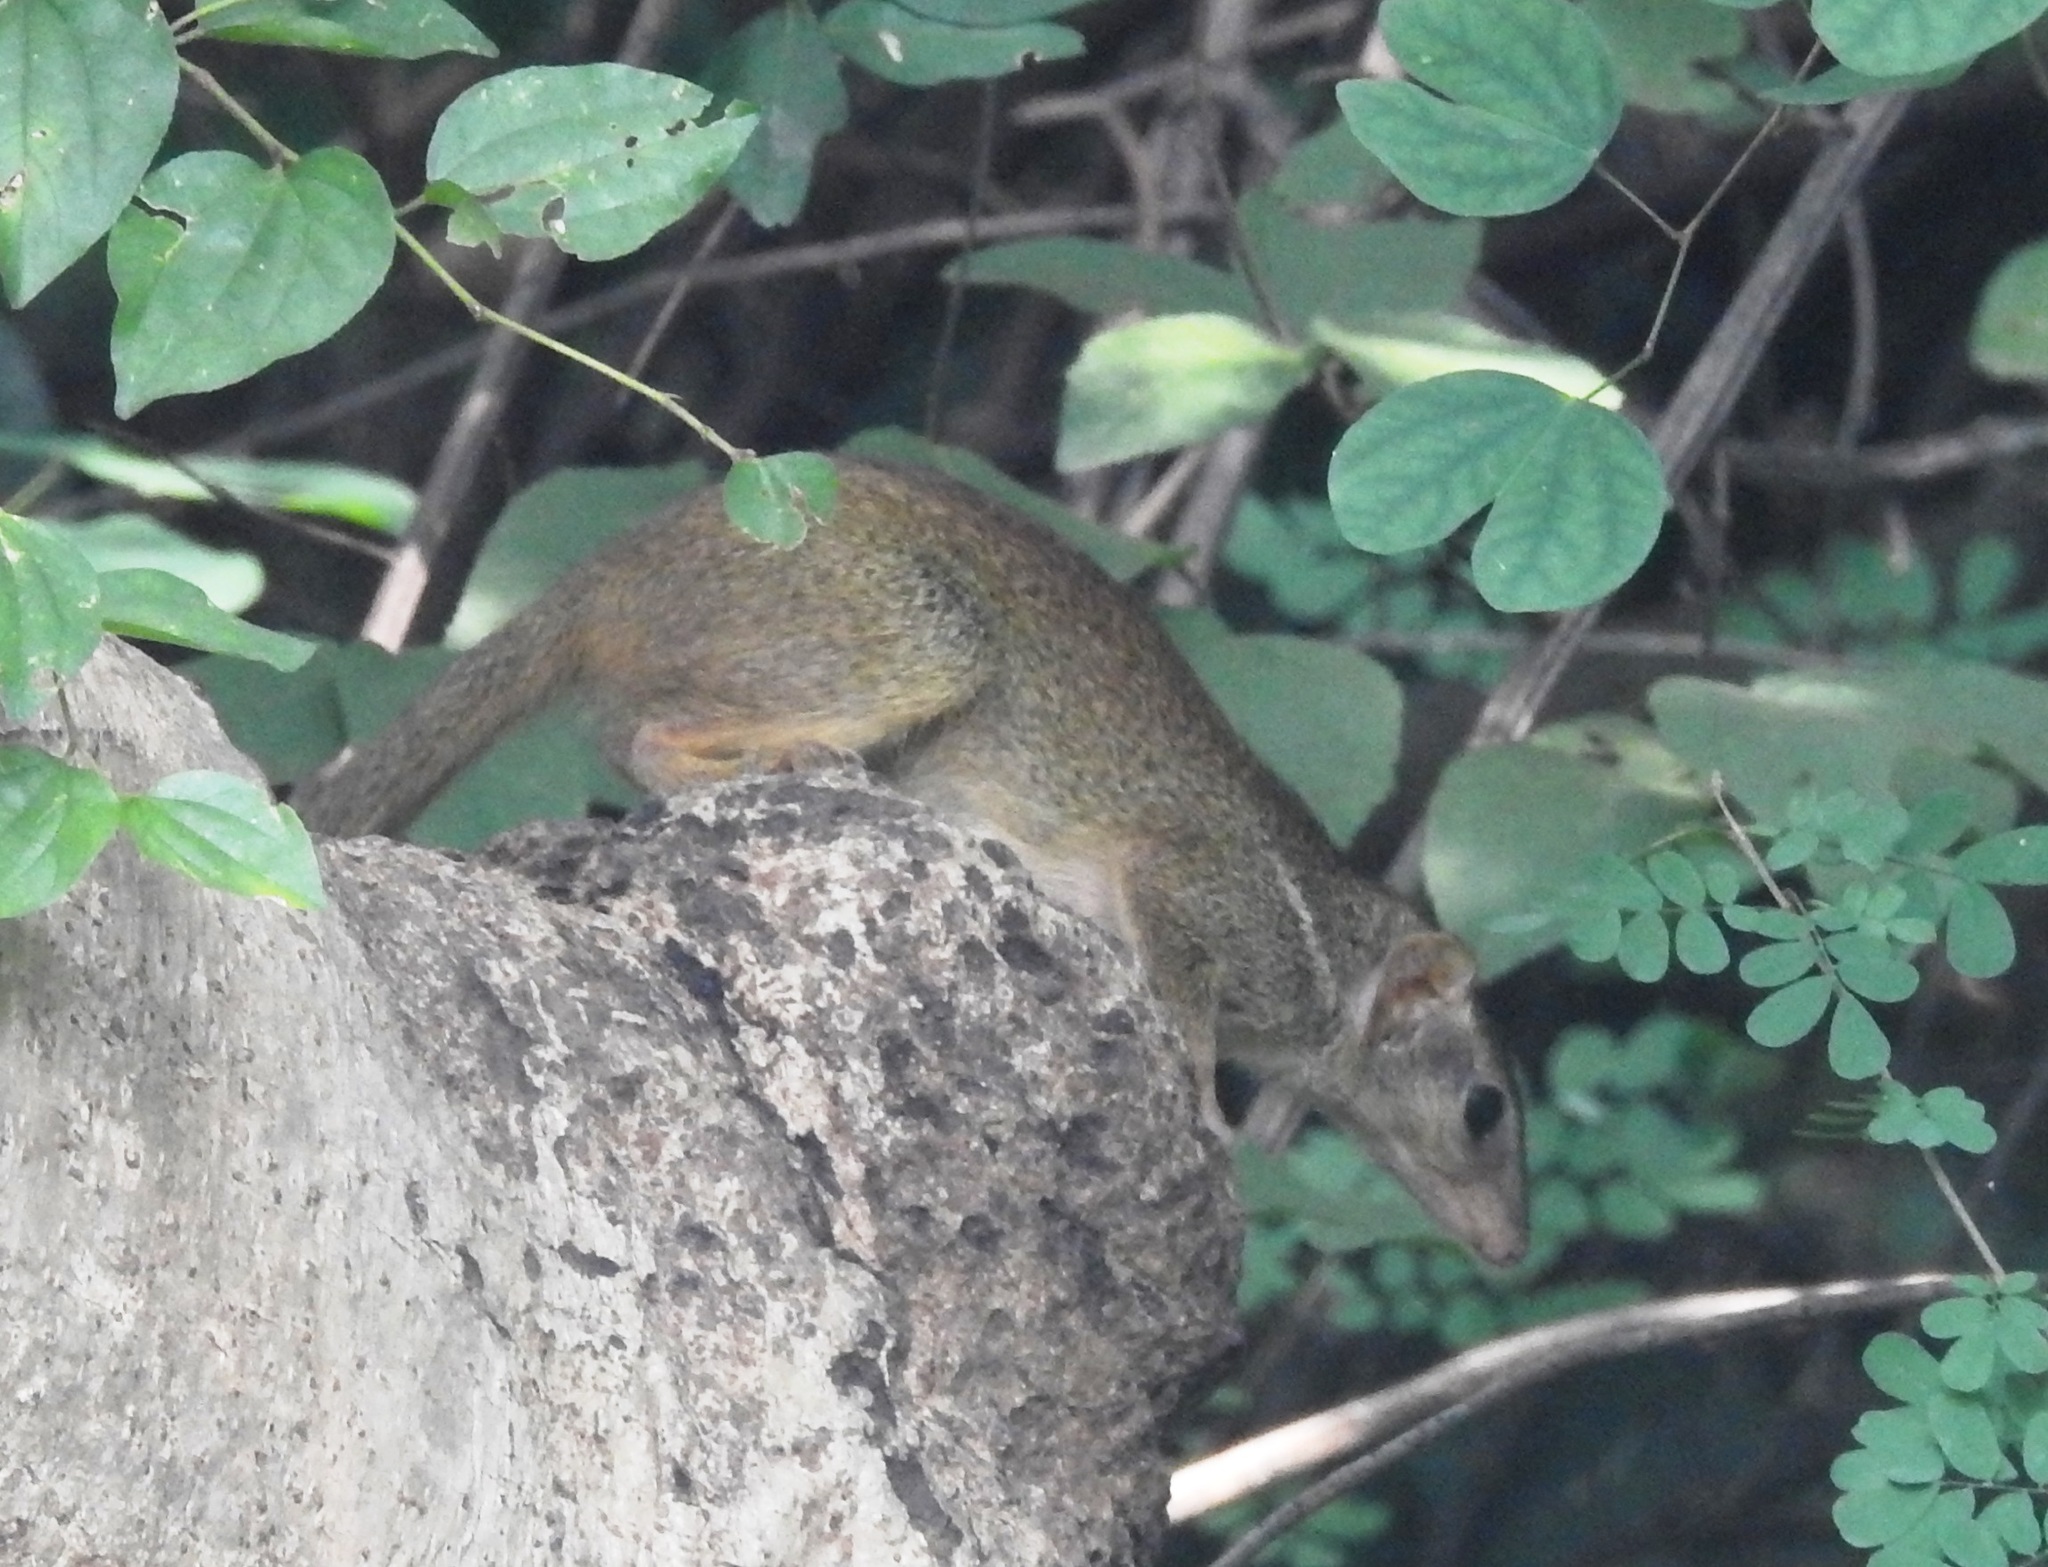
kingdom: Animalia
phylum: Chordata
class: Mammalia
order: Scandentia
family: Tupaiidae
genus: Anathana
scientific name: Anathana ellioti
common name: Madras treeshrew
